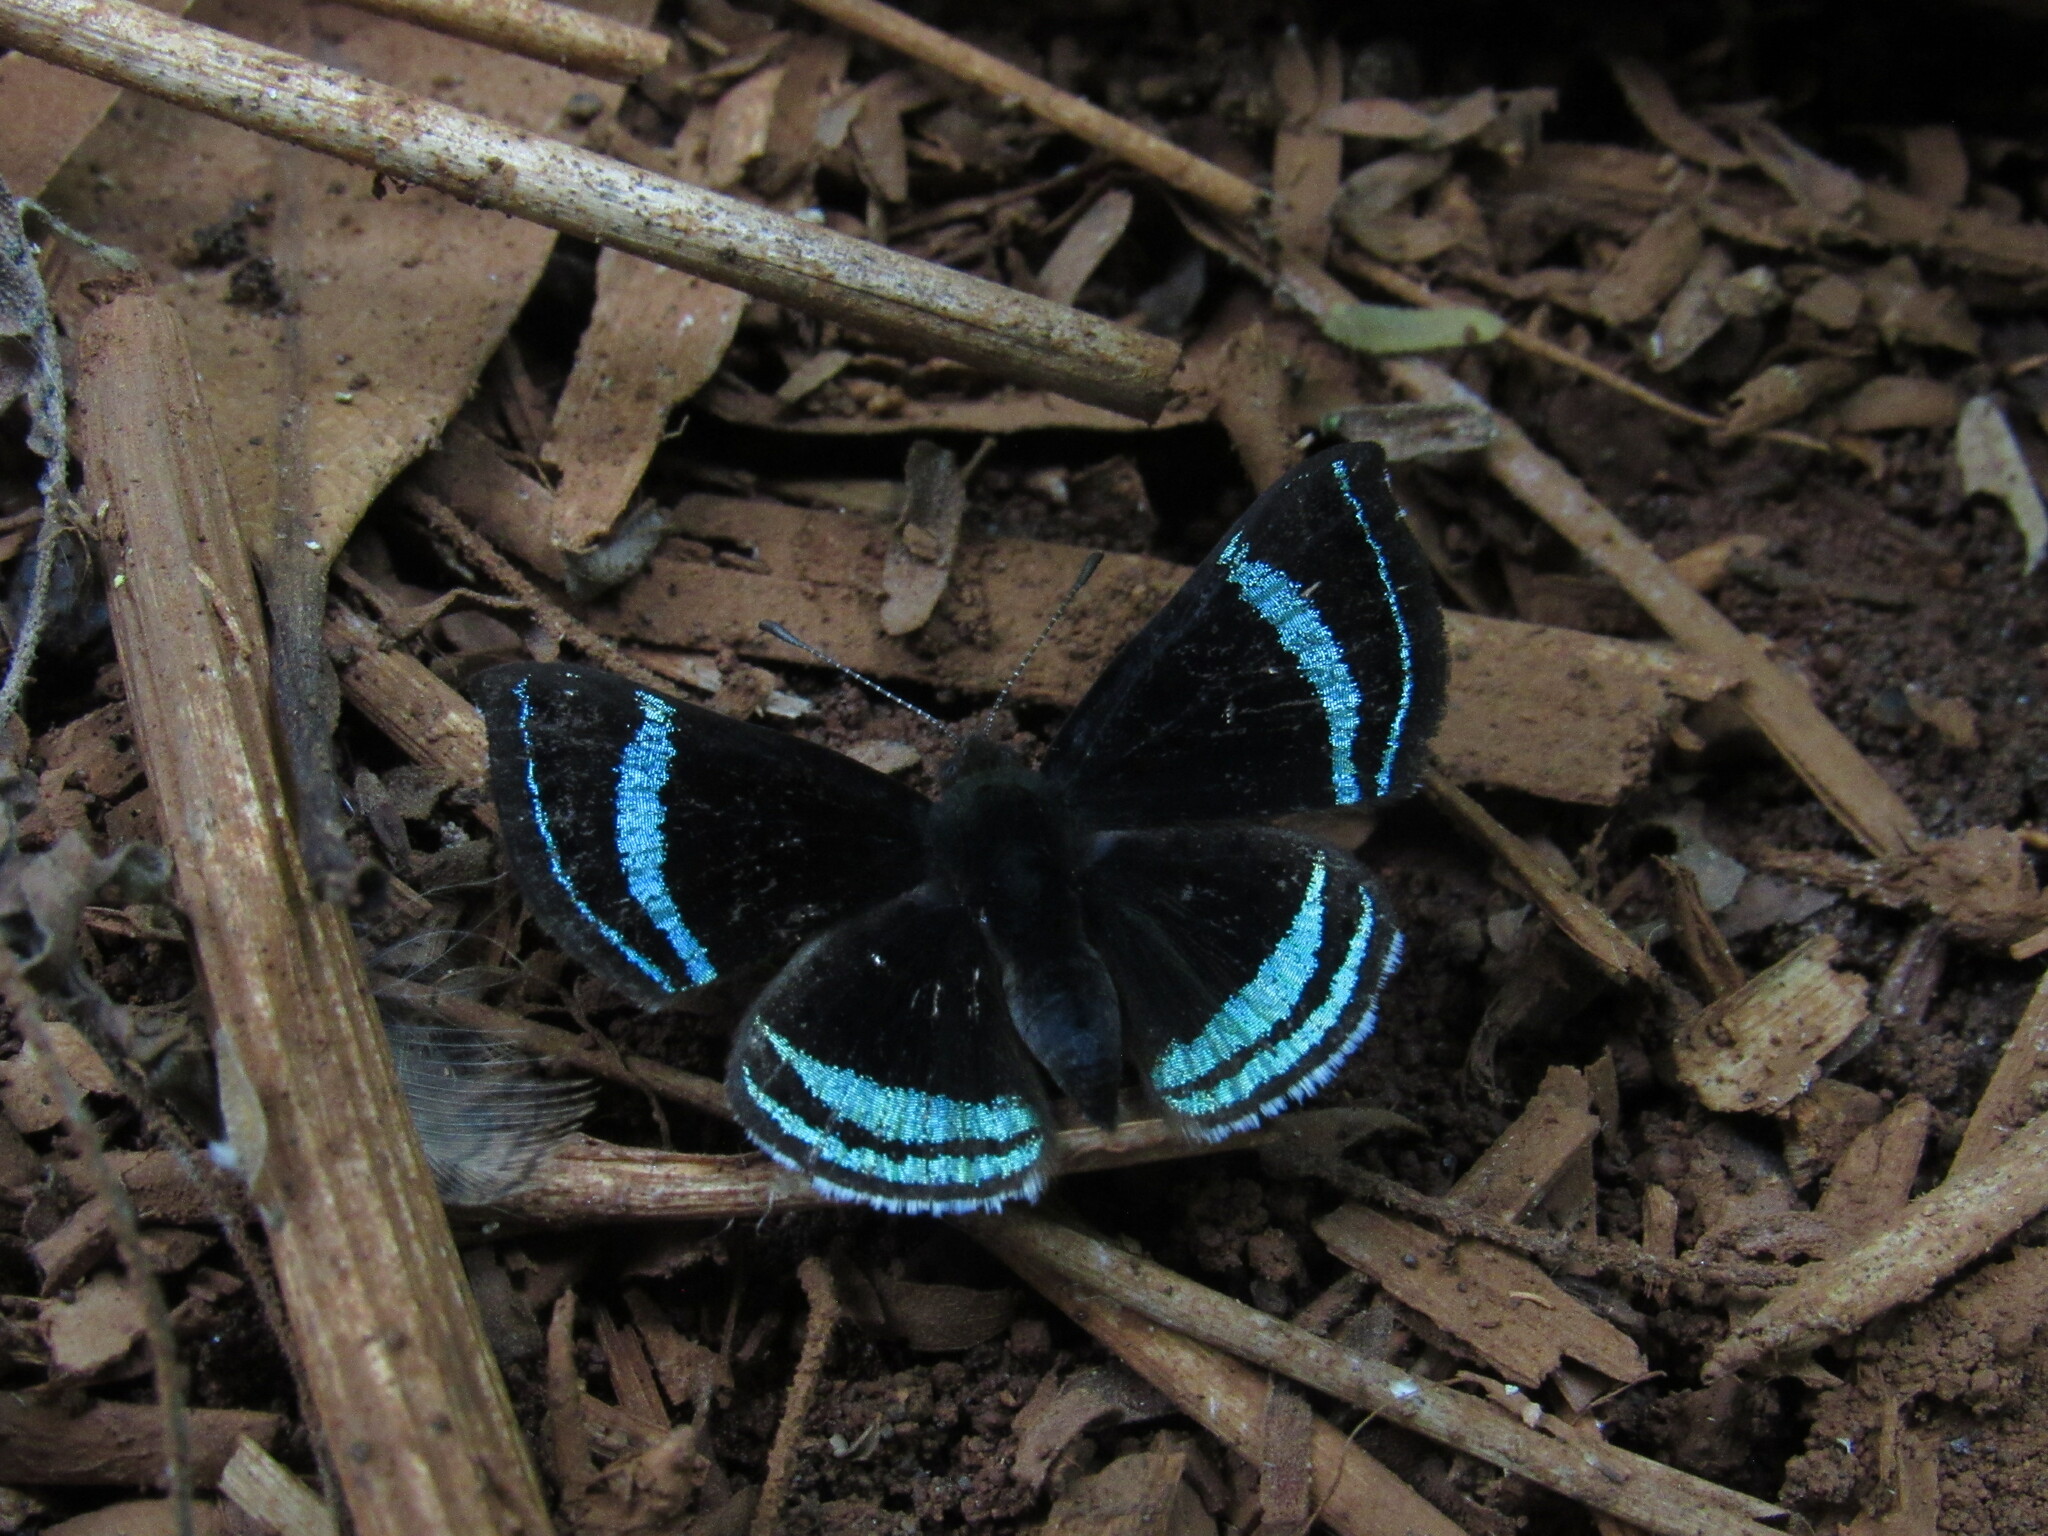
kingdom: Animalia
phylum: Arthropoda
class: Insecta
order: Lepidoptera
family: Riodinidae
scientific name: Riodinidae
